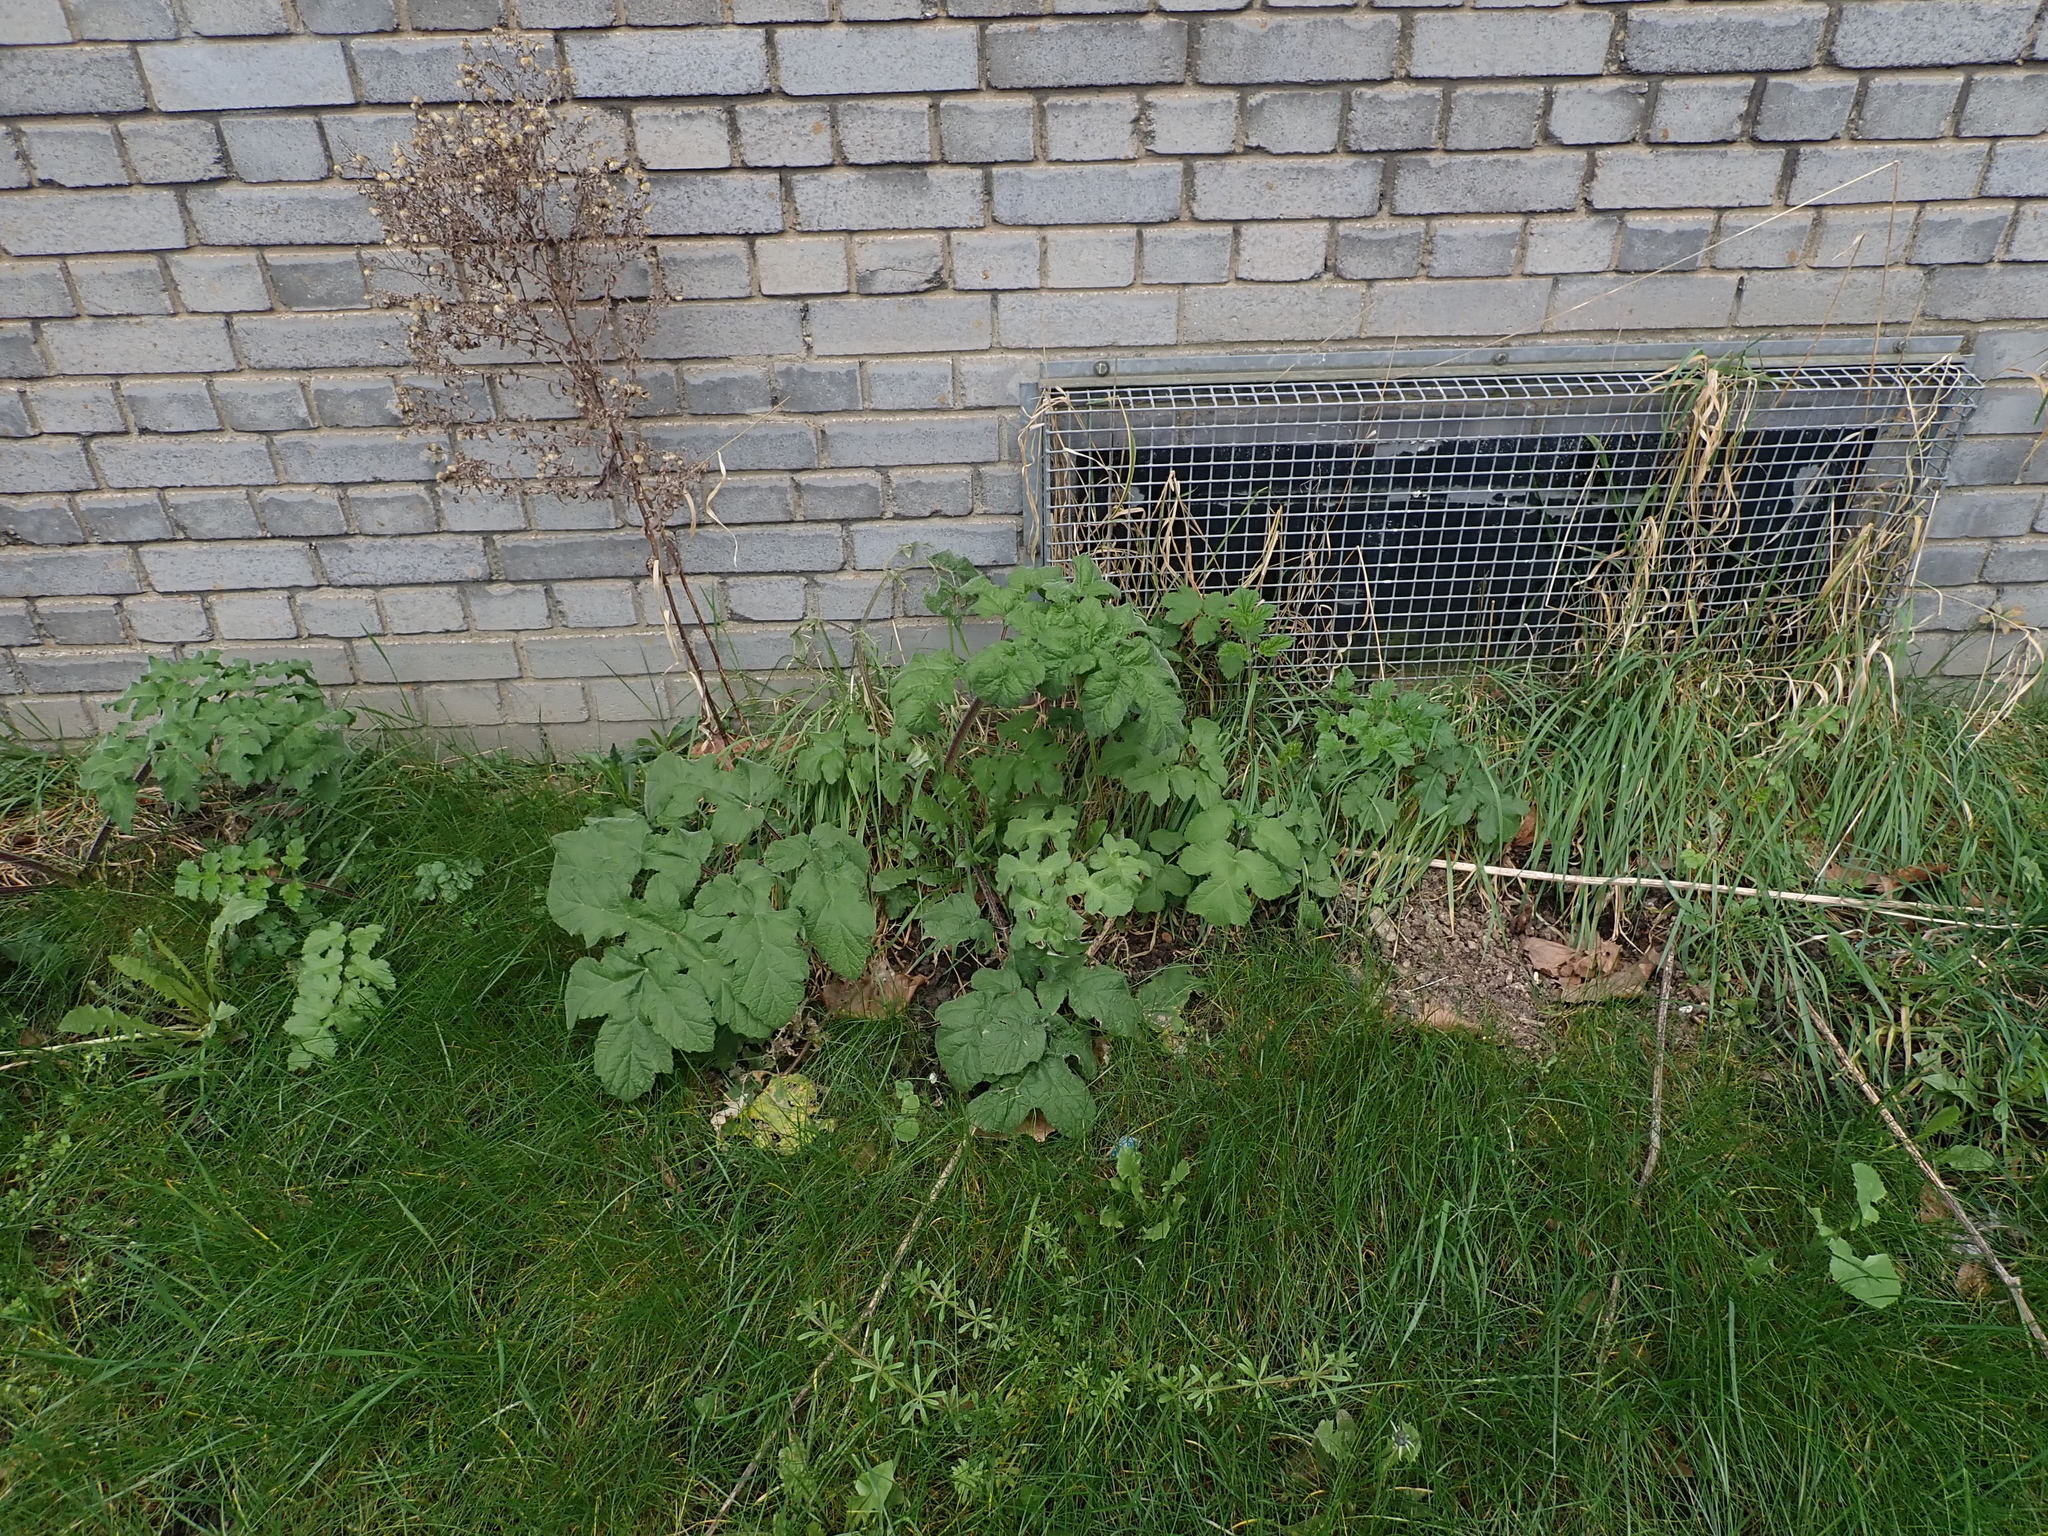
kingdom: Plantae
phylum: Tracheophyta
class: Magnoliopsida
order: Apiales
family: Apiaceae
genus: Heracleum
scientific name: Heracleum sphondylium
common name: Hogweed
